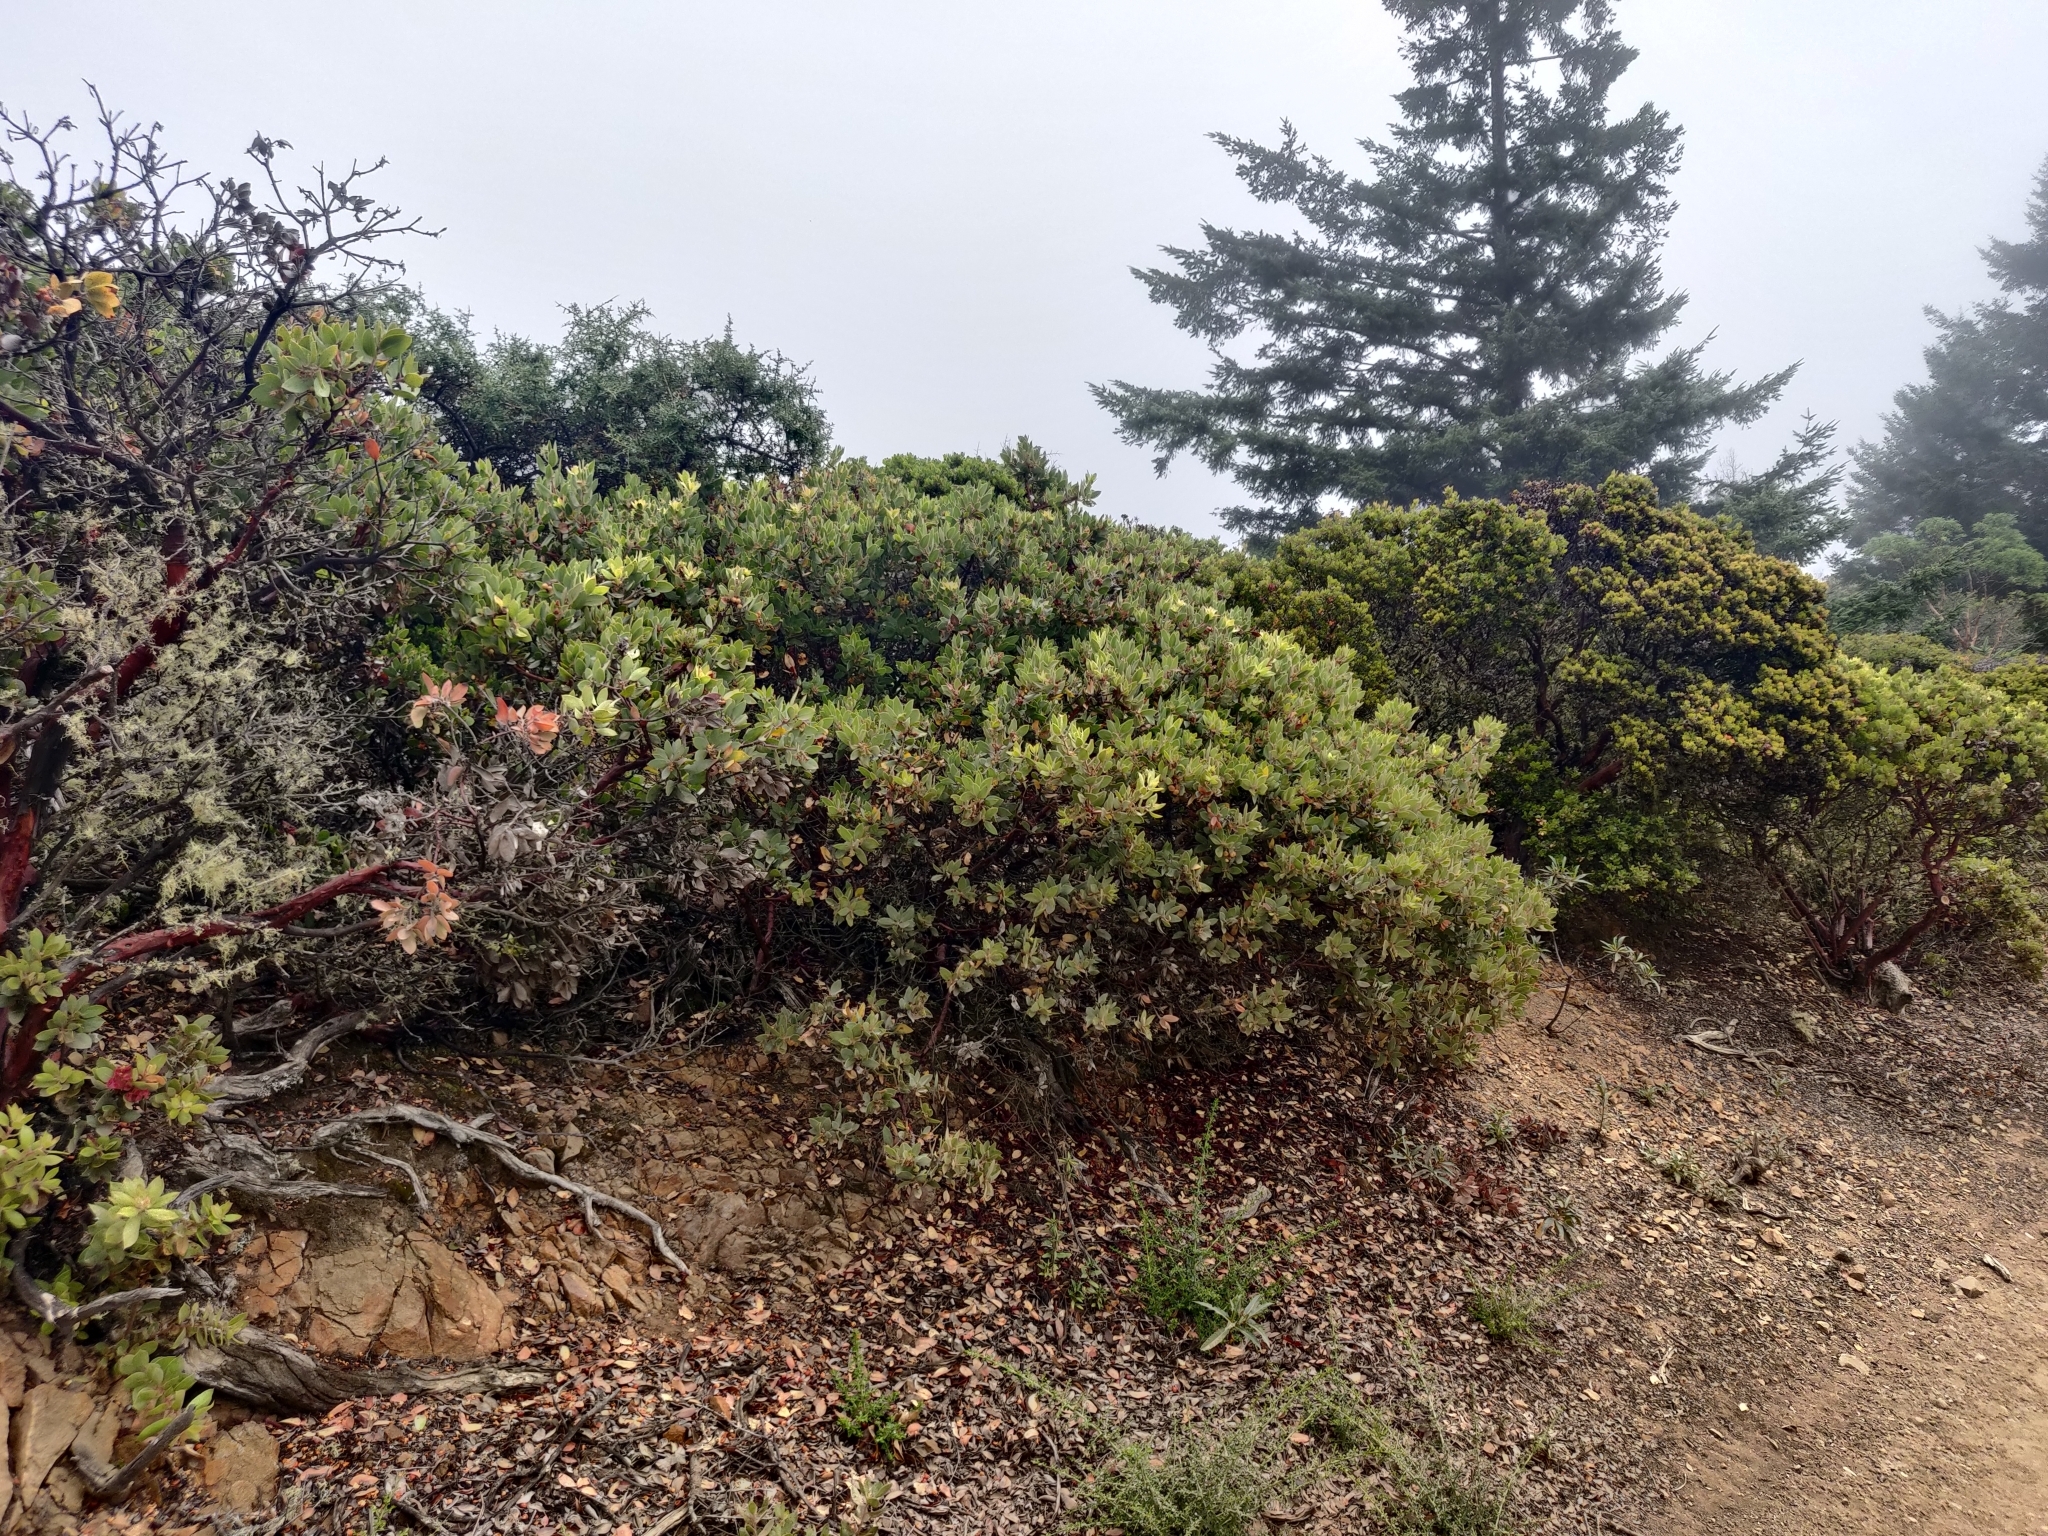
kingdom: Plantae
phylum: Tracheophyta
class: Magnoliopsida
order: Ericales
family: Ericaceae
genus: Arctostaphylos
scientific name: Arctostaphylos glandulosa
